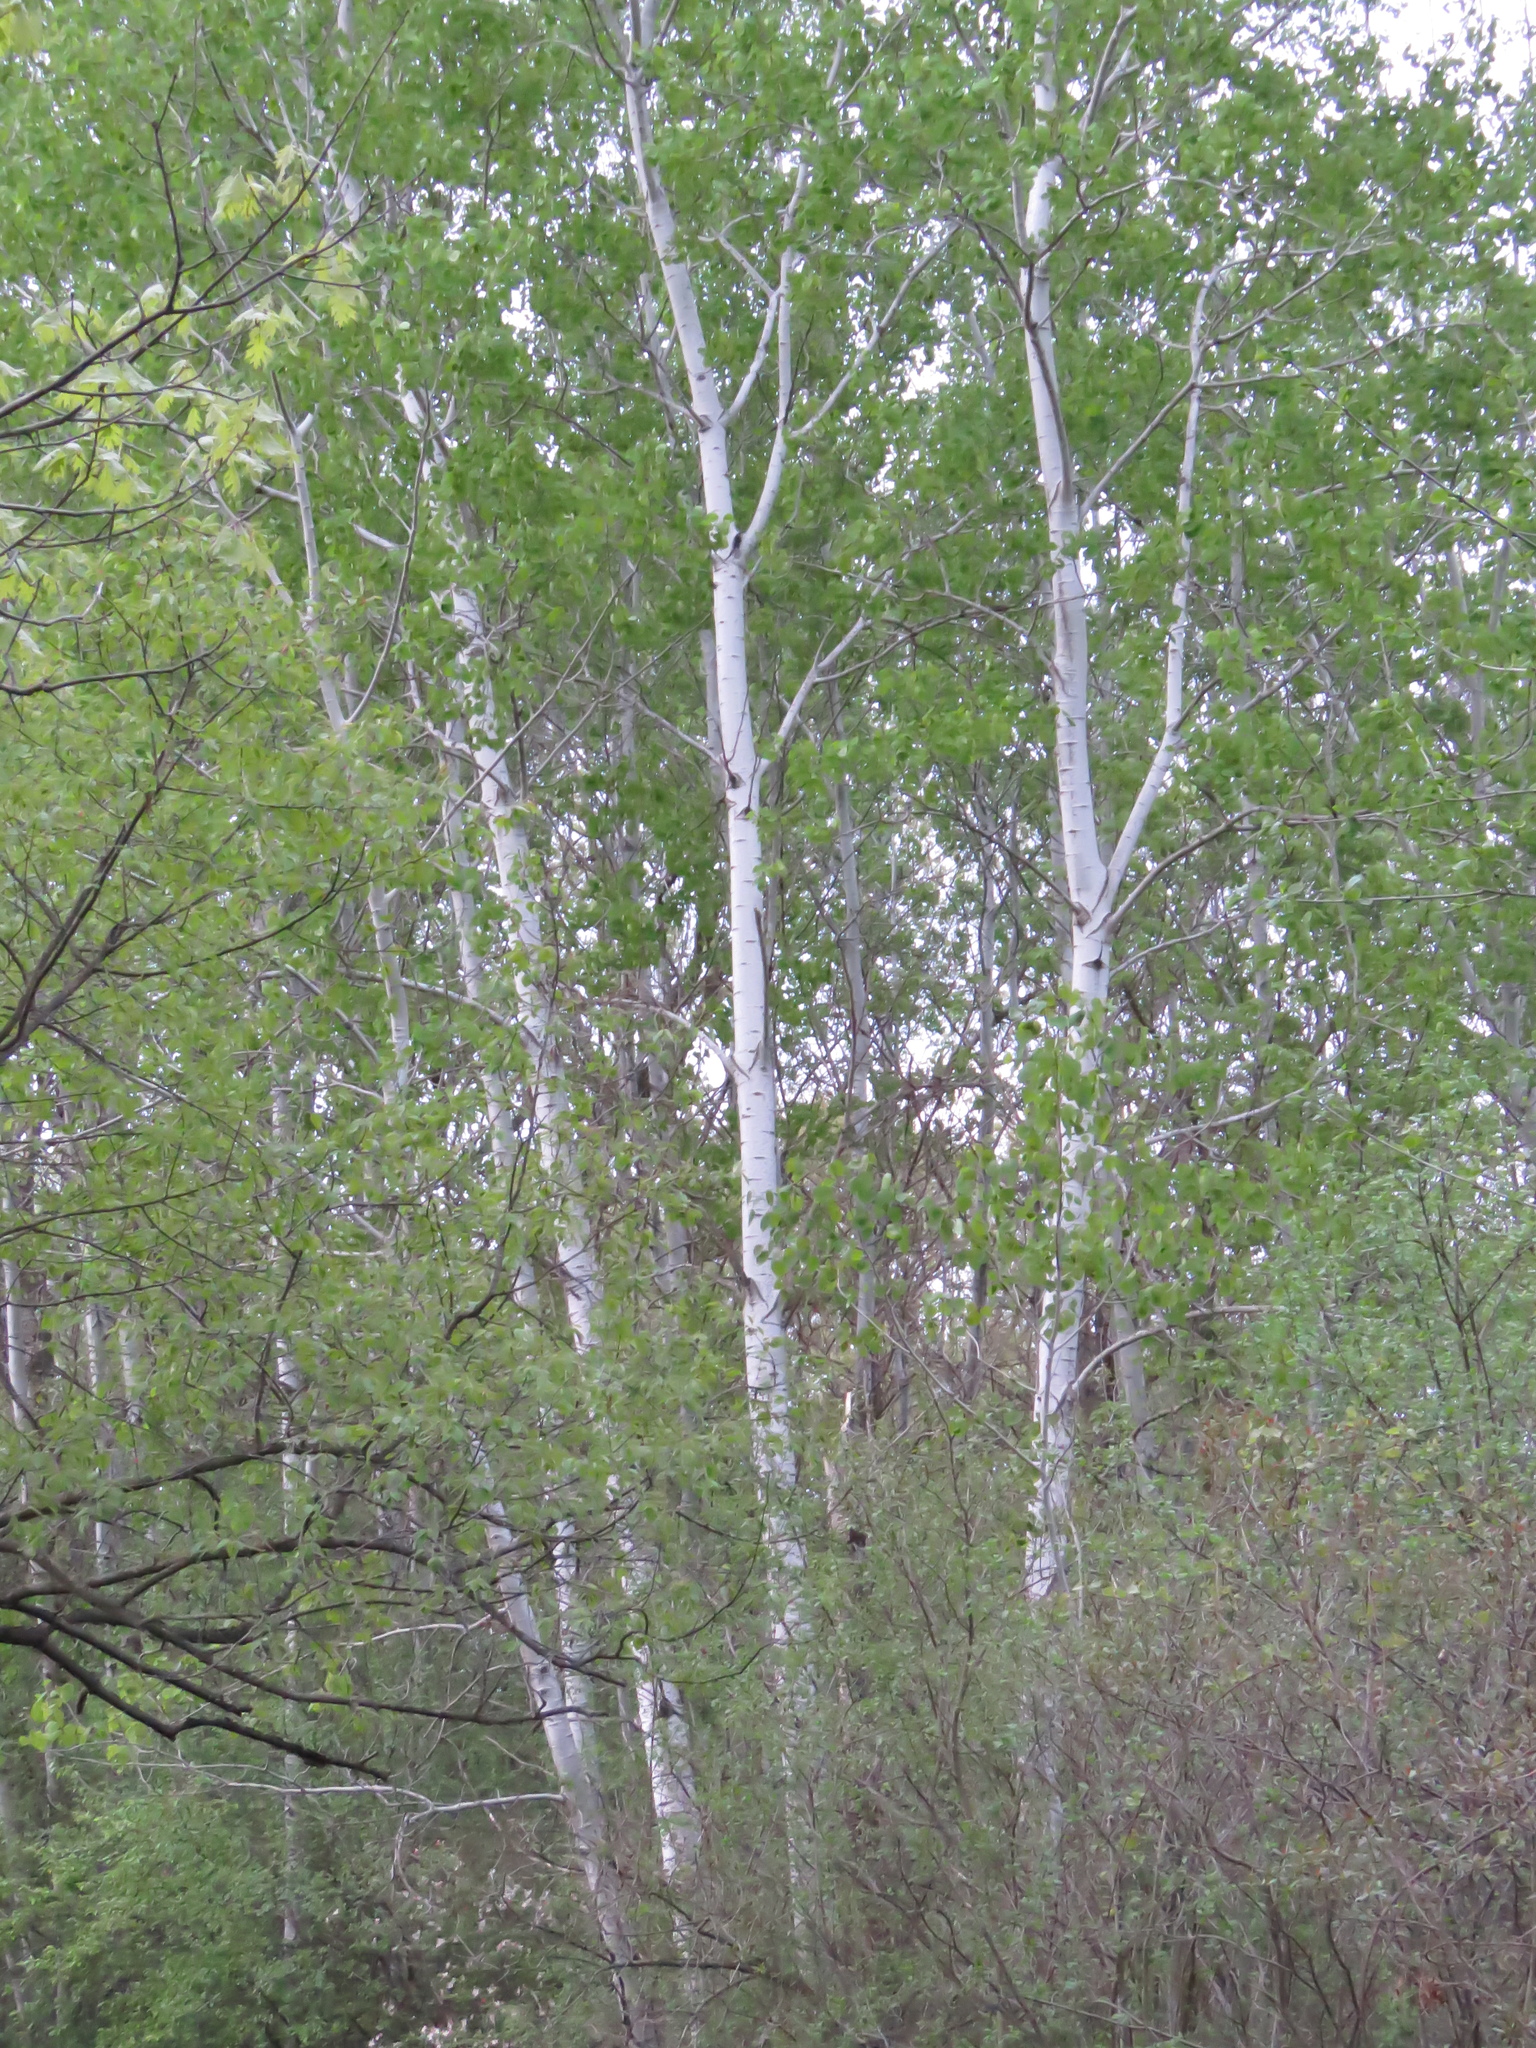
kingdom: Plantae
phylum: Tracheophyta
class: Magnoliopsida
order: Malpighiales
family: Salicaceae
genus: Populus
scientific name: Populus tremuloides
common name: Quaking aspen
